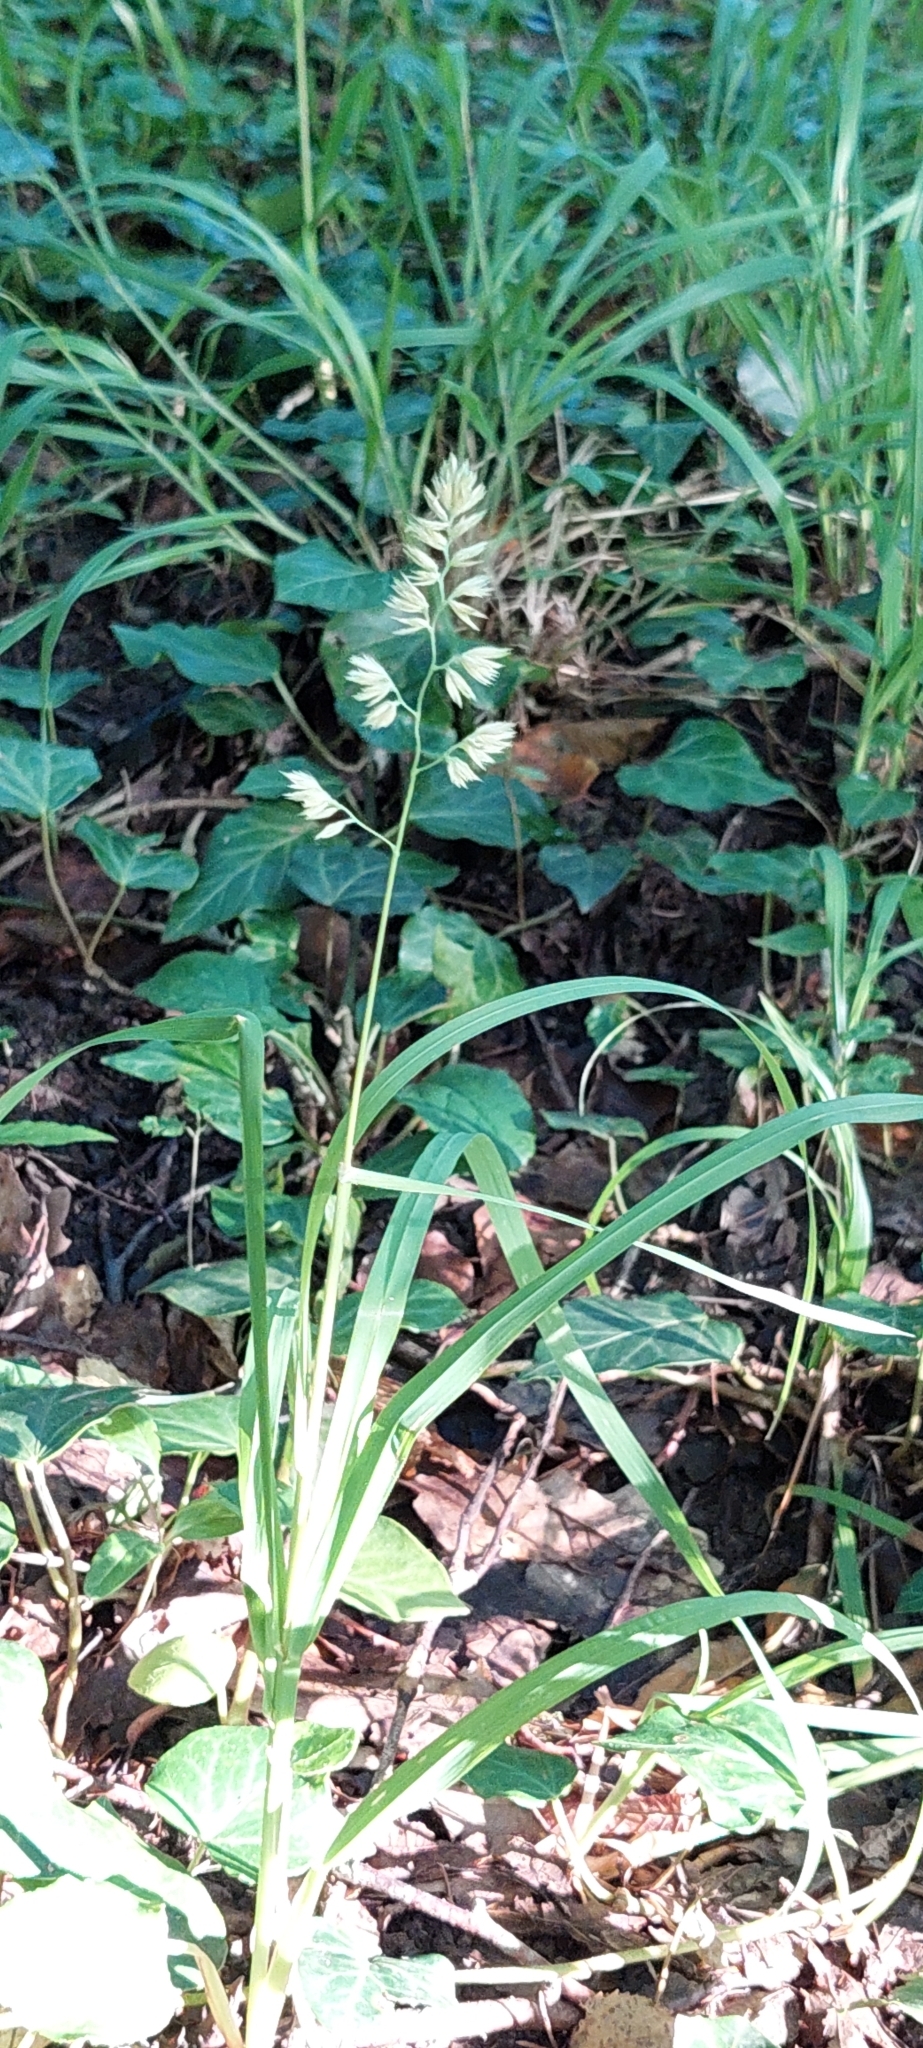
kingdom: Plantae
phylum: Tracheophyta
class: Liliopsida
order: Poales
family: Poaceae
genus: Dactylis
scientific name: Dactylis glomerata
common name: Orchardgrass
